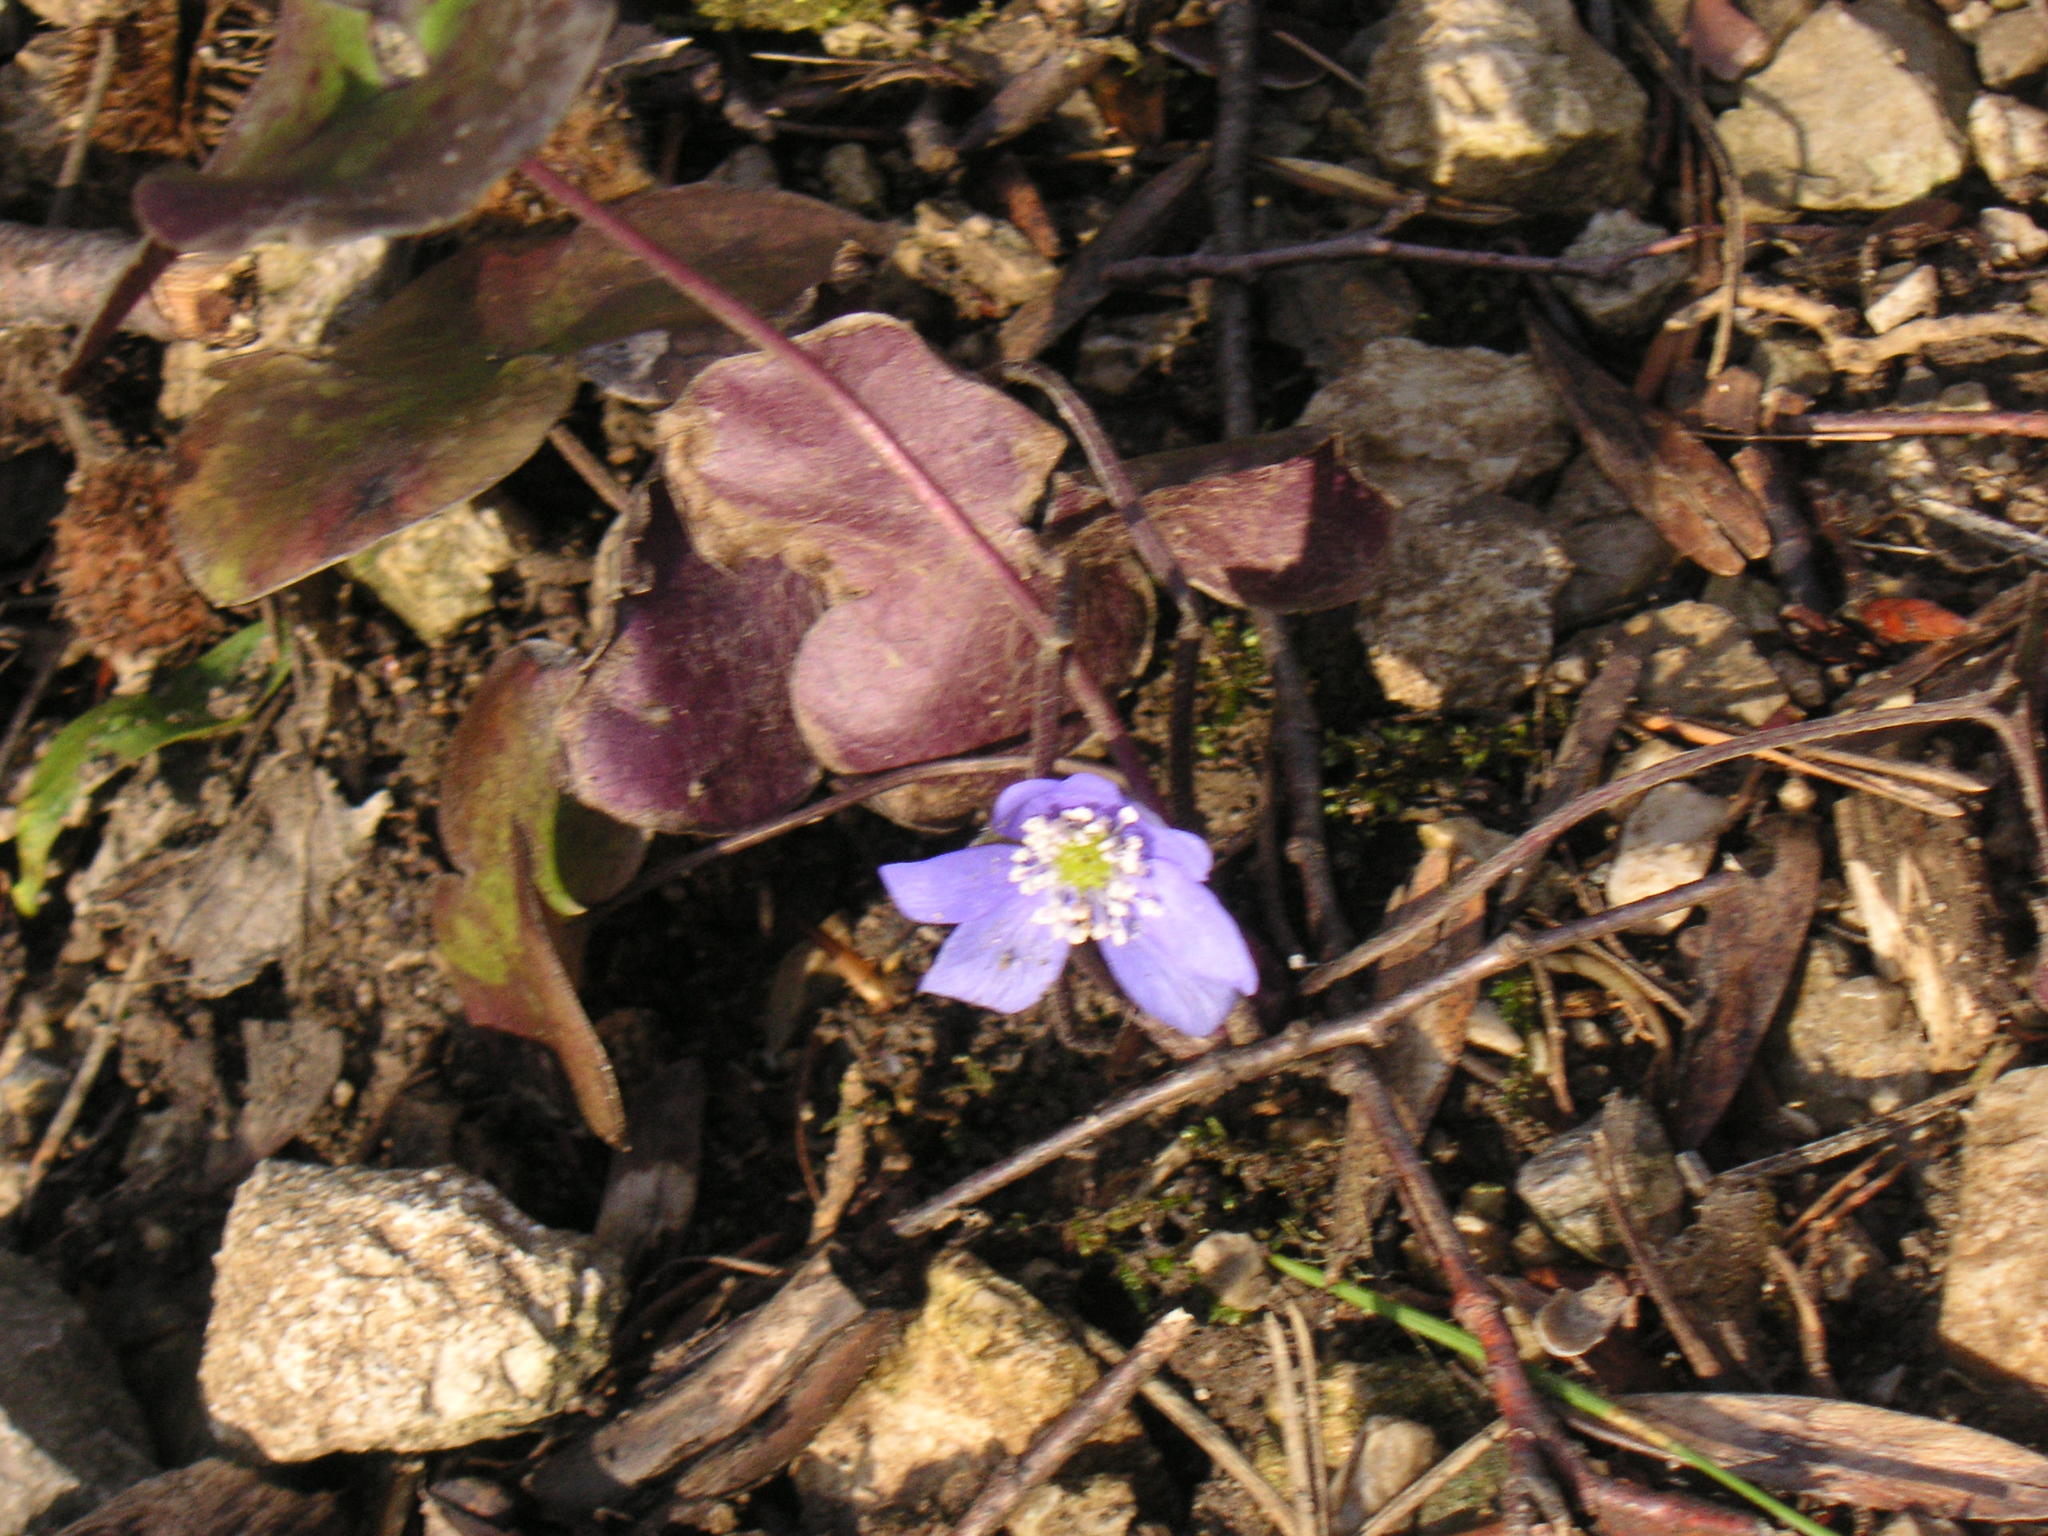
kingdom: Plantae
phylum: Tracheophyta
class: Magnoliopsida
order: Ranunculales
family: Ranunculaceae
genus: Hepatica
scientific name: Hepatica nobilis
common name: Liverleaf
